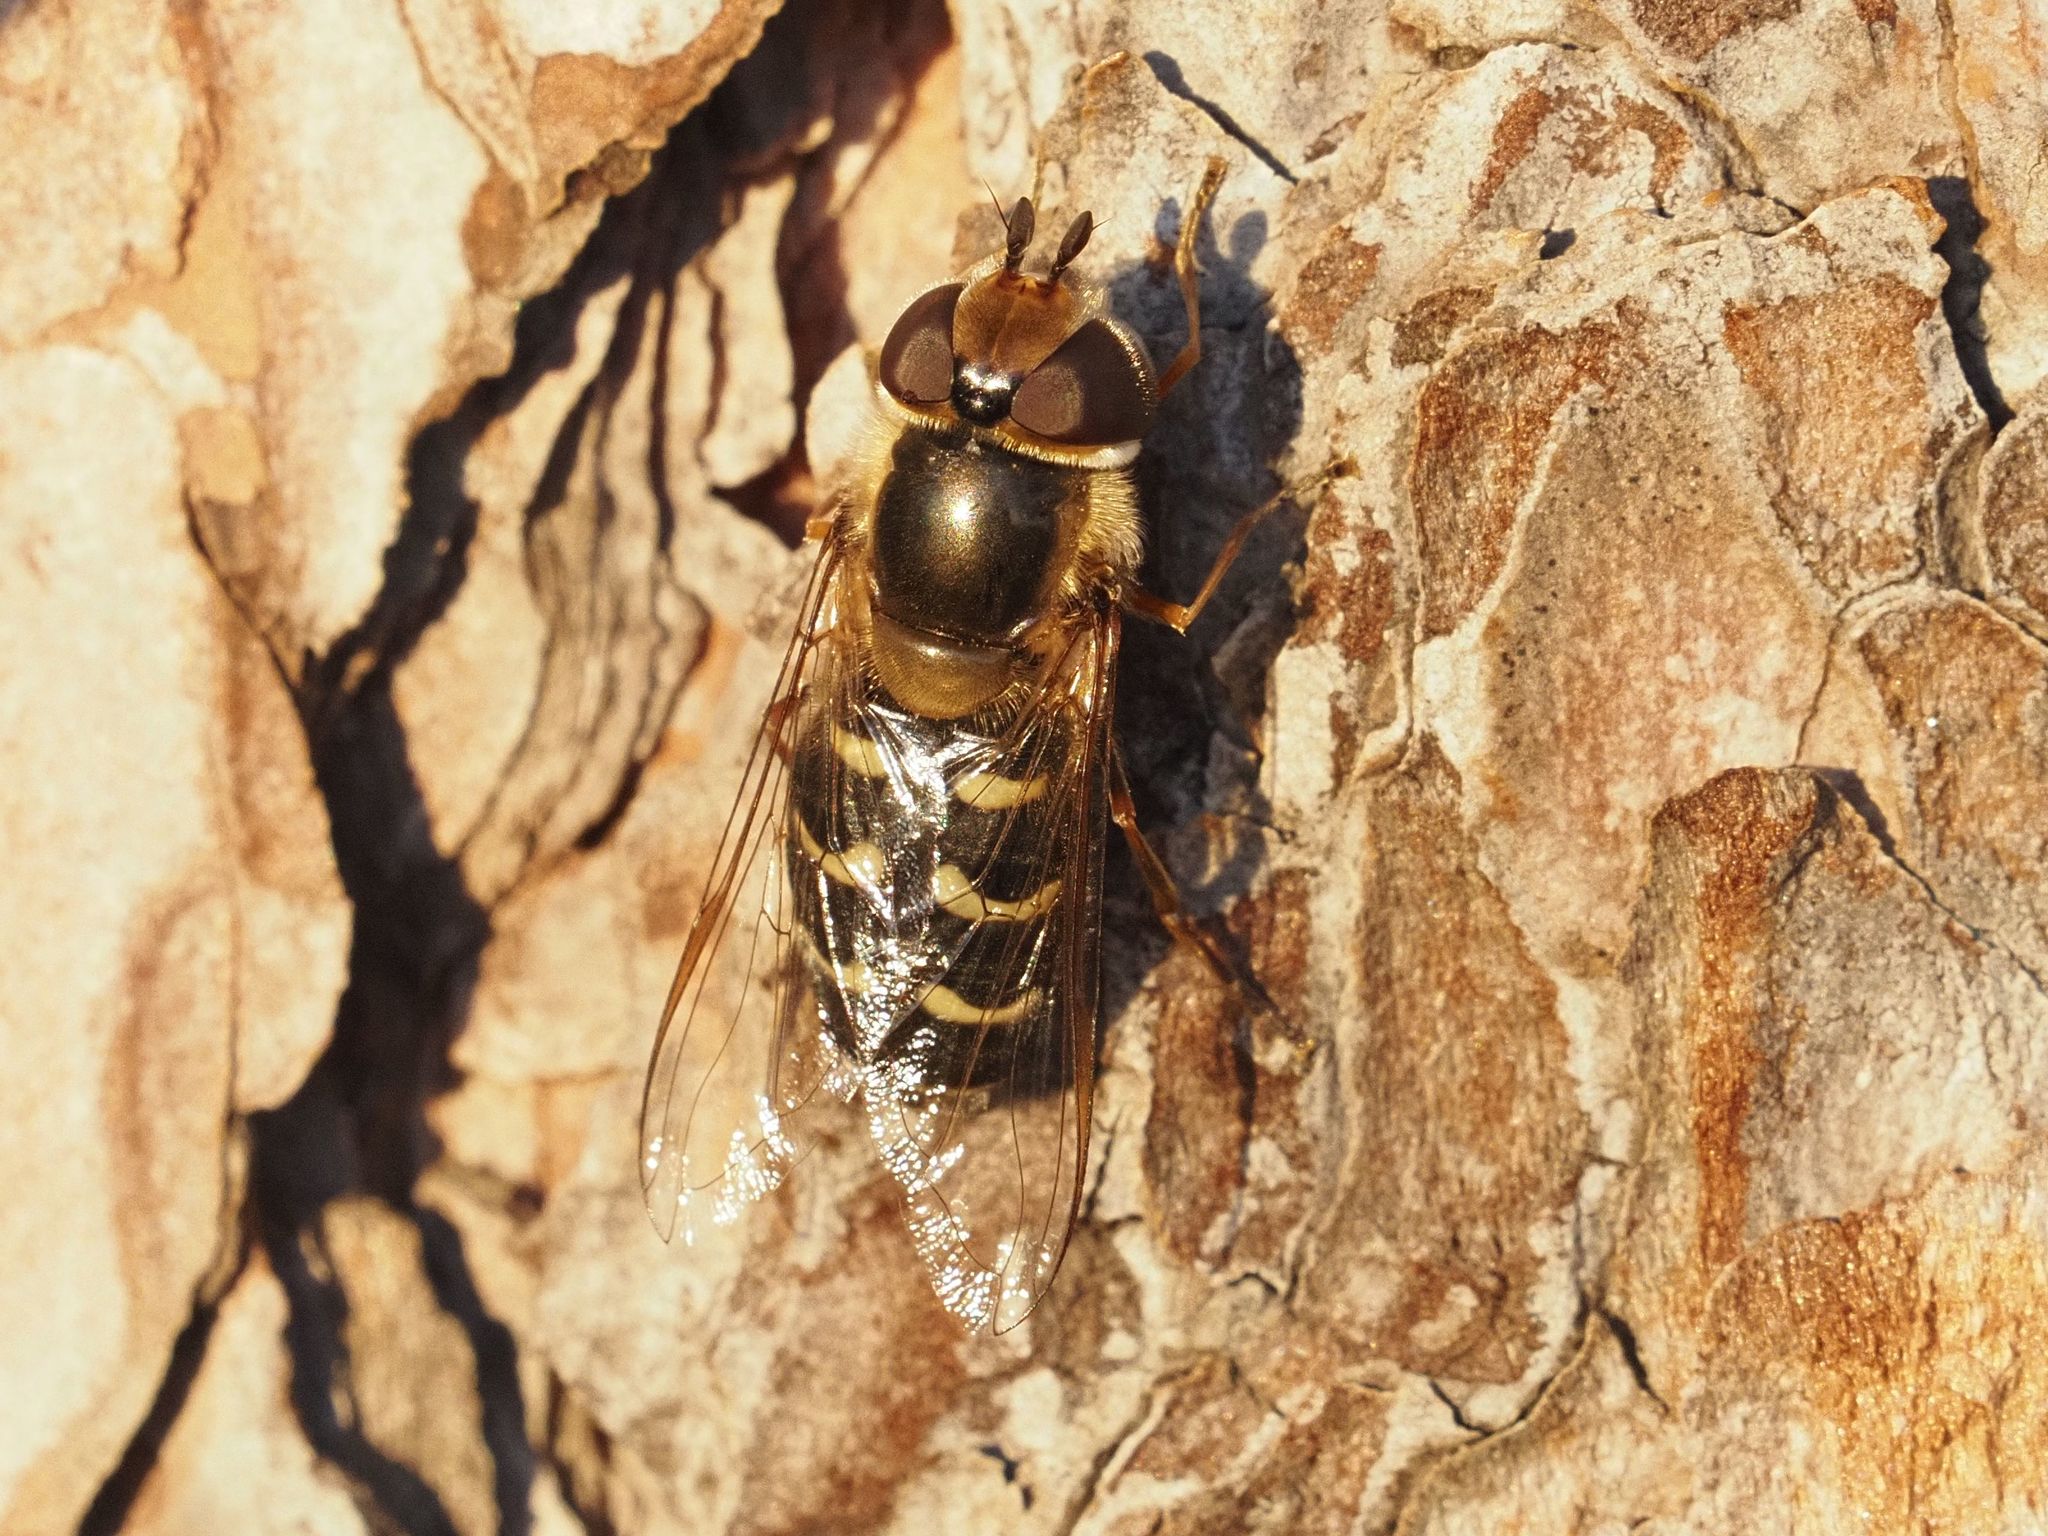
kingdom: Animalia
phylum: Arthropoda
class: Insecta
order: Diptera
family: Syrphidae
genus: Scaeva
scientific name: Scaeva pyrastri
